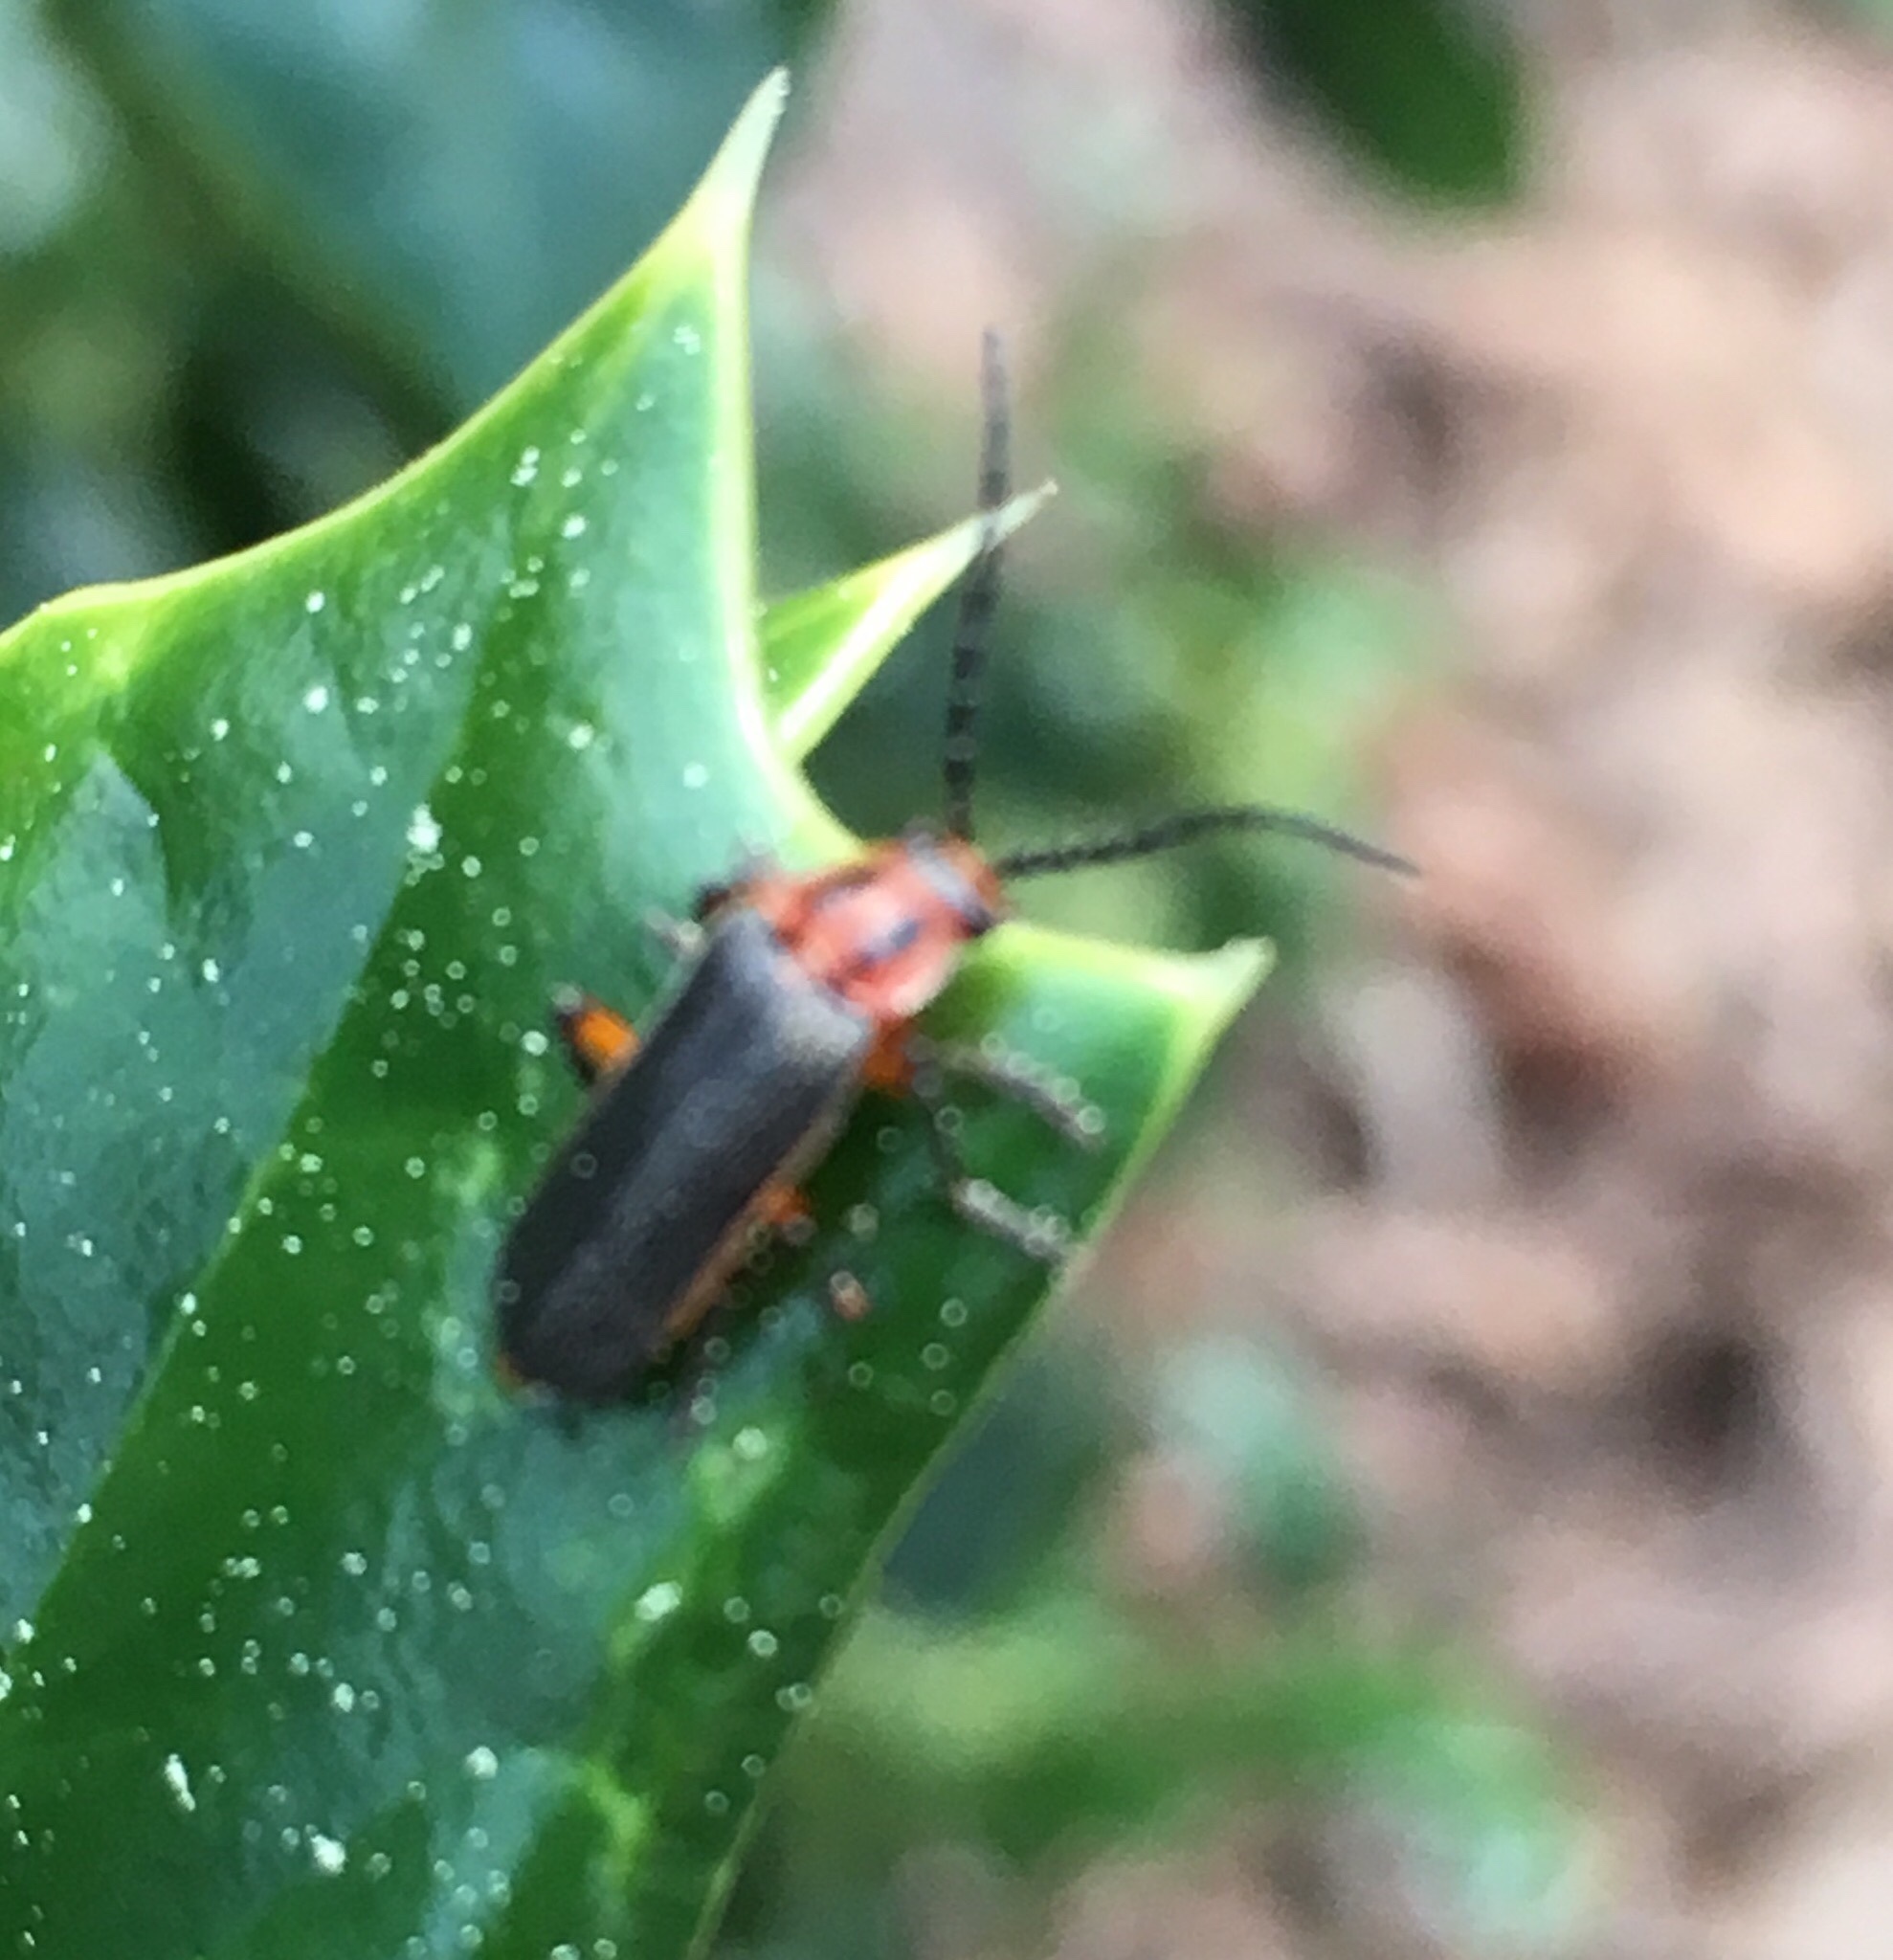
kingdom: Animalia
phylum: Arthropoda
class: Insecta
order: Coleoptera
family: Cantharidae
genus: Atalantycha
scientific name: Atalantycha bilineata
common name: Two-lined leatherwing
